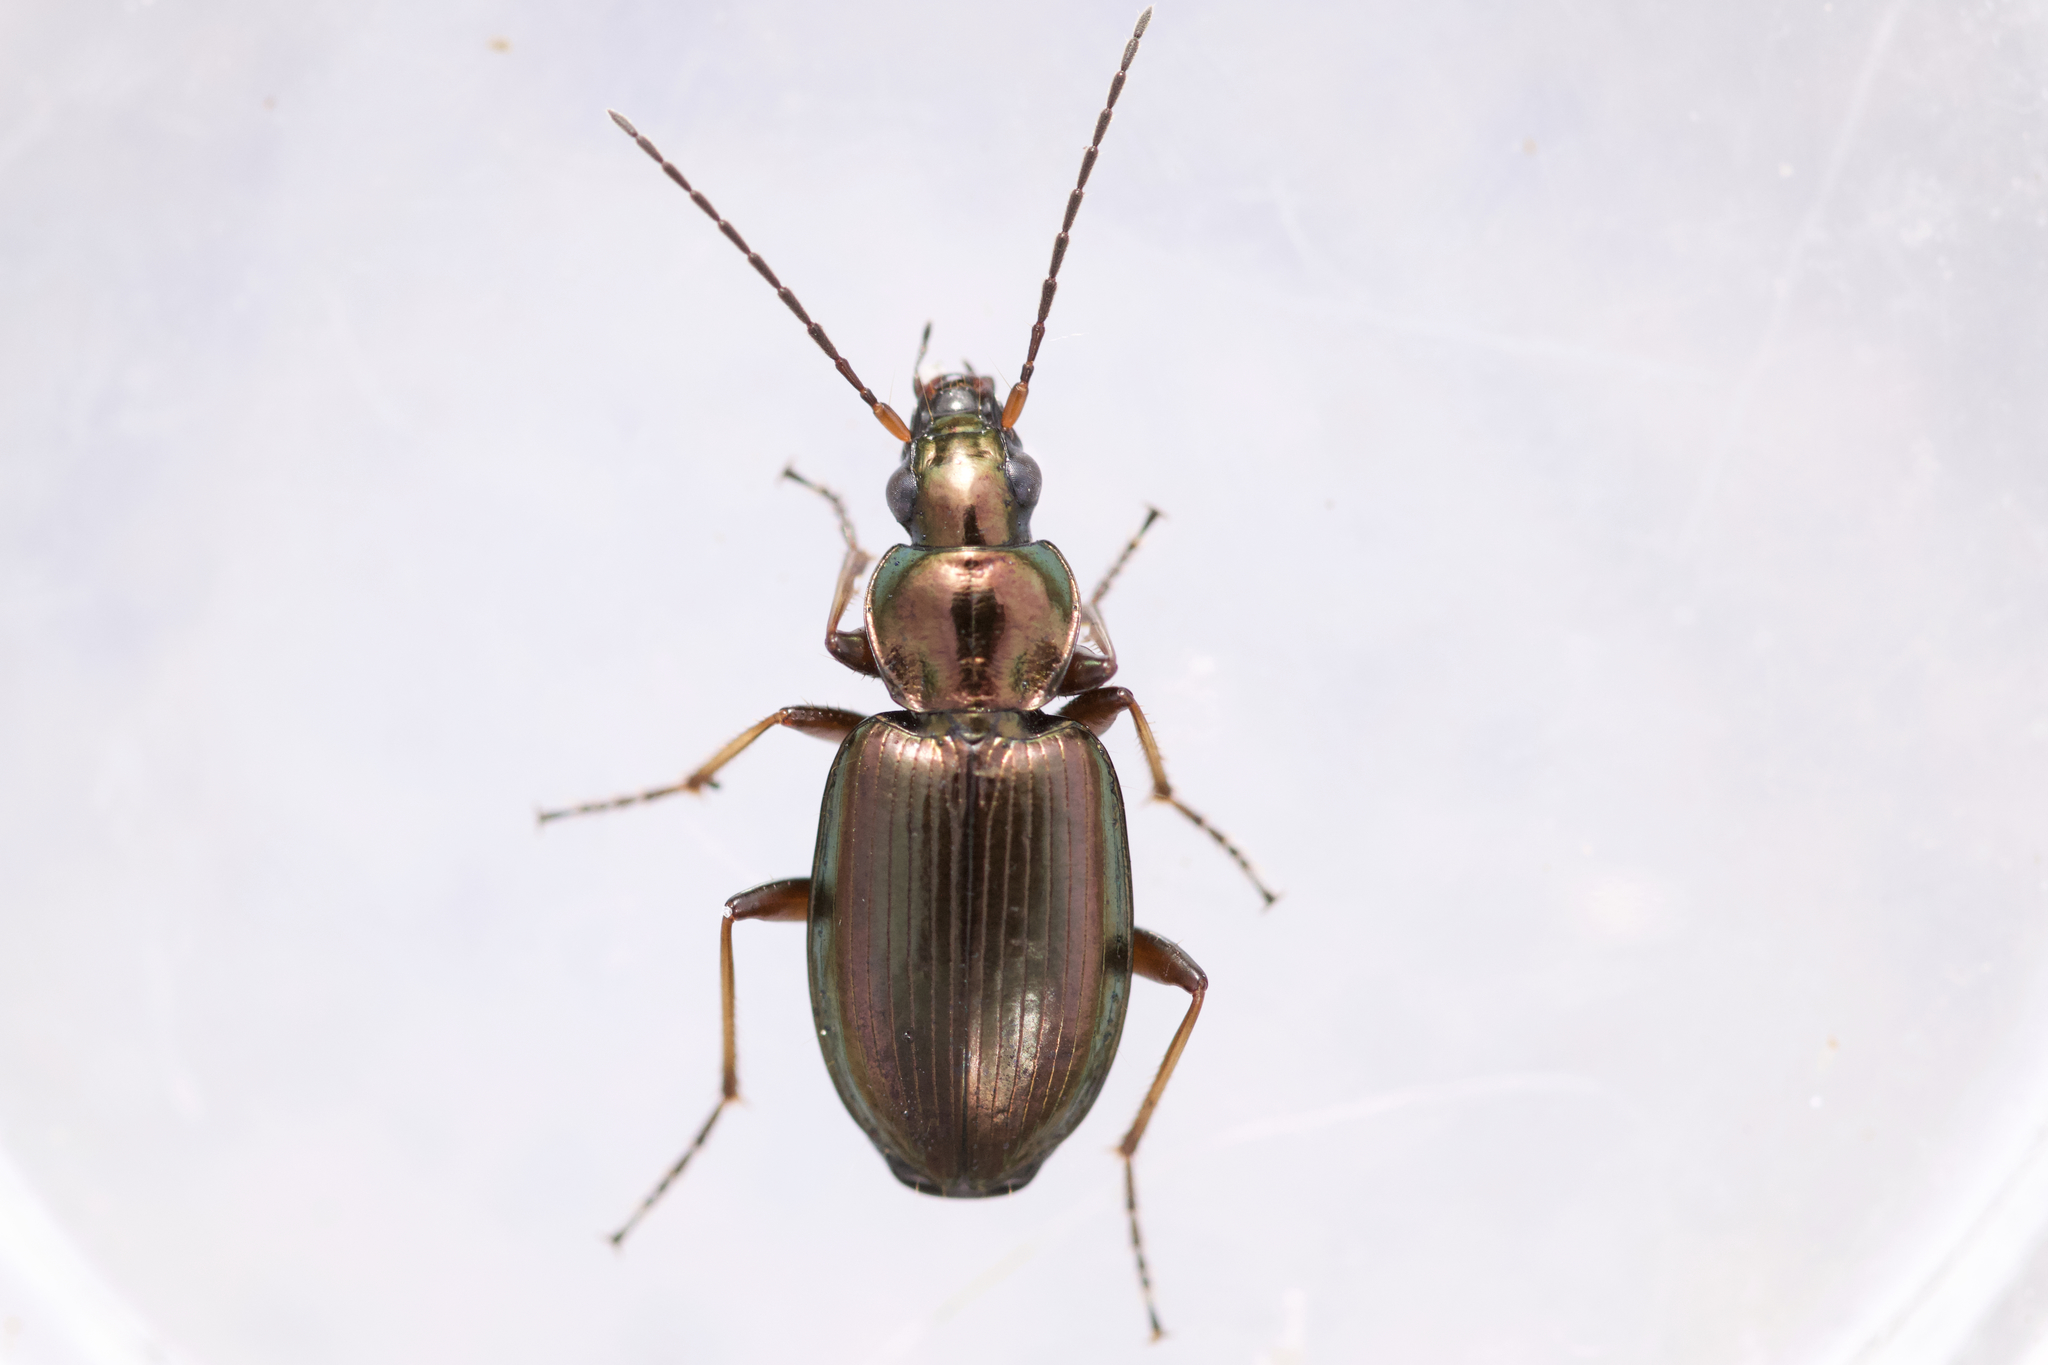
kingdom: Animalia
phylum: Arthropoda
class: Insecta
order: Coleoptera
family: Carabidae
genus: Agonum
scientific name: Agonum muelleri
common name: Müller's harp ground beetle
